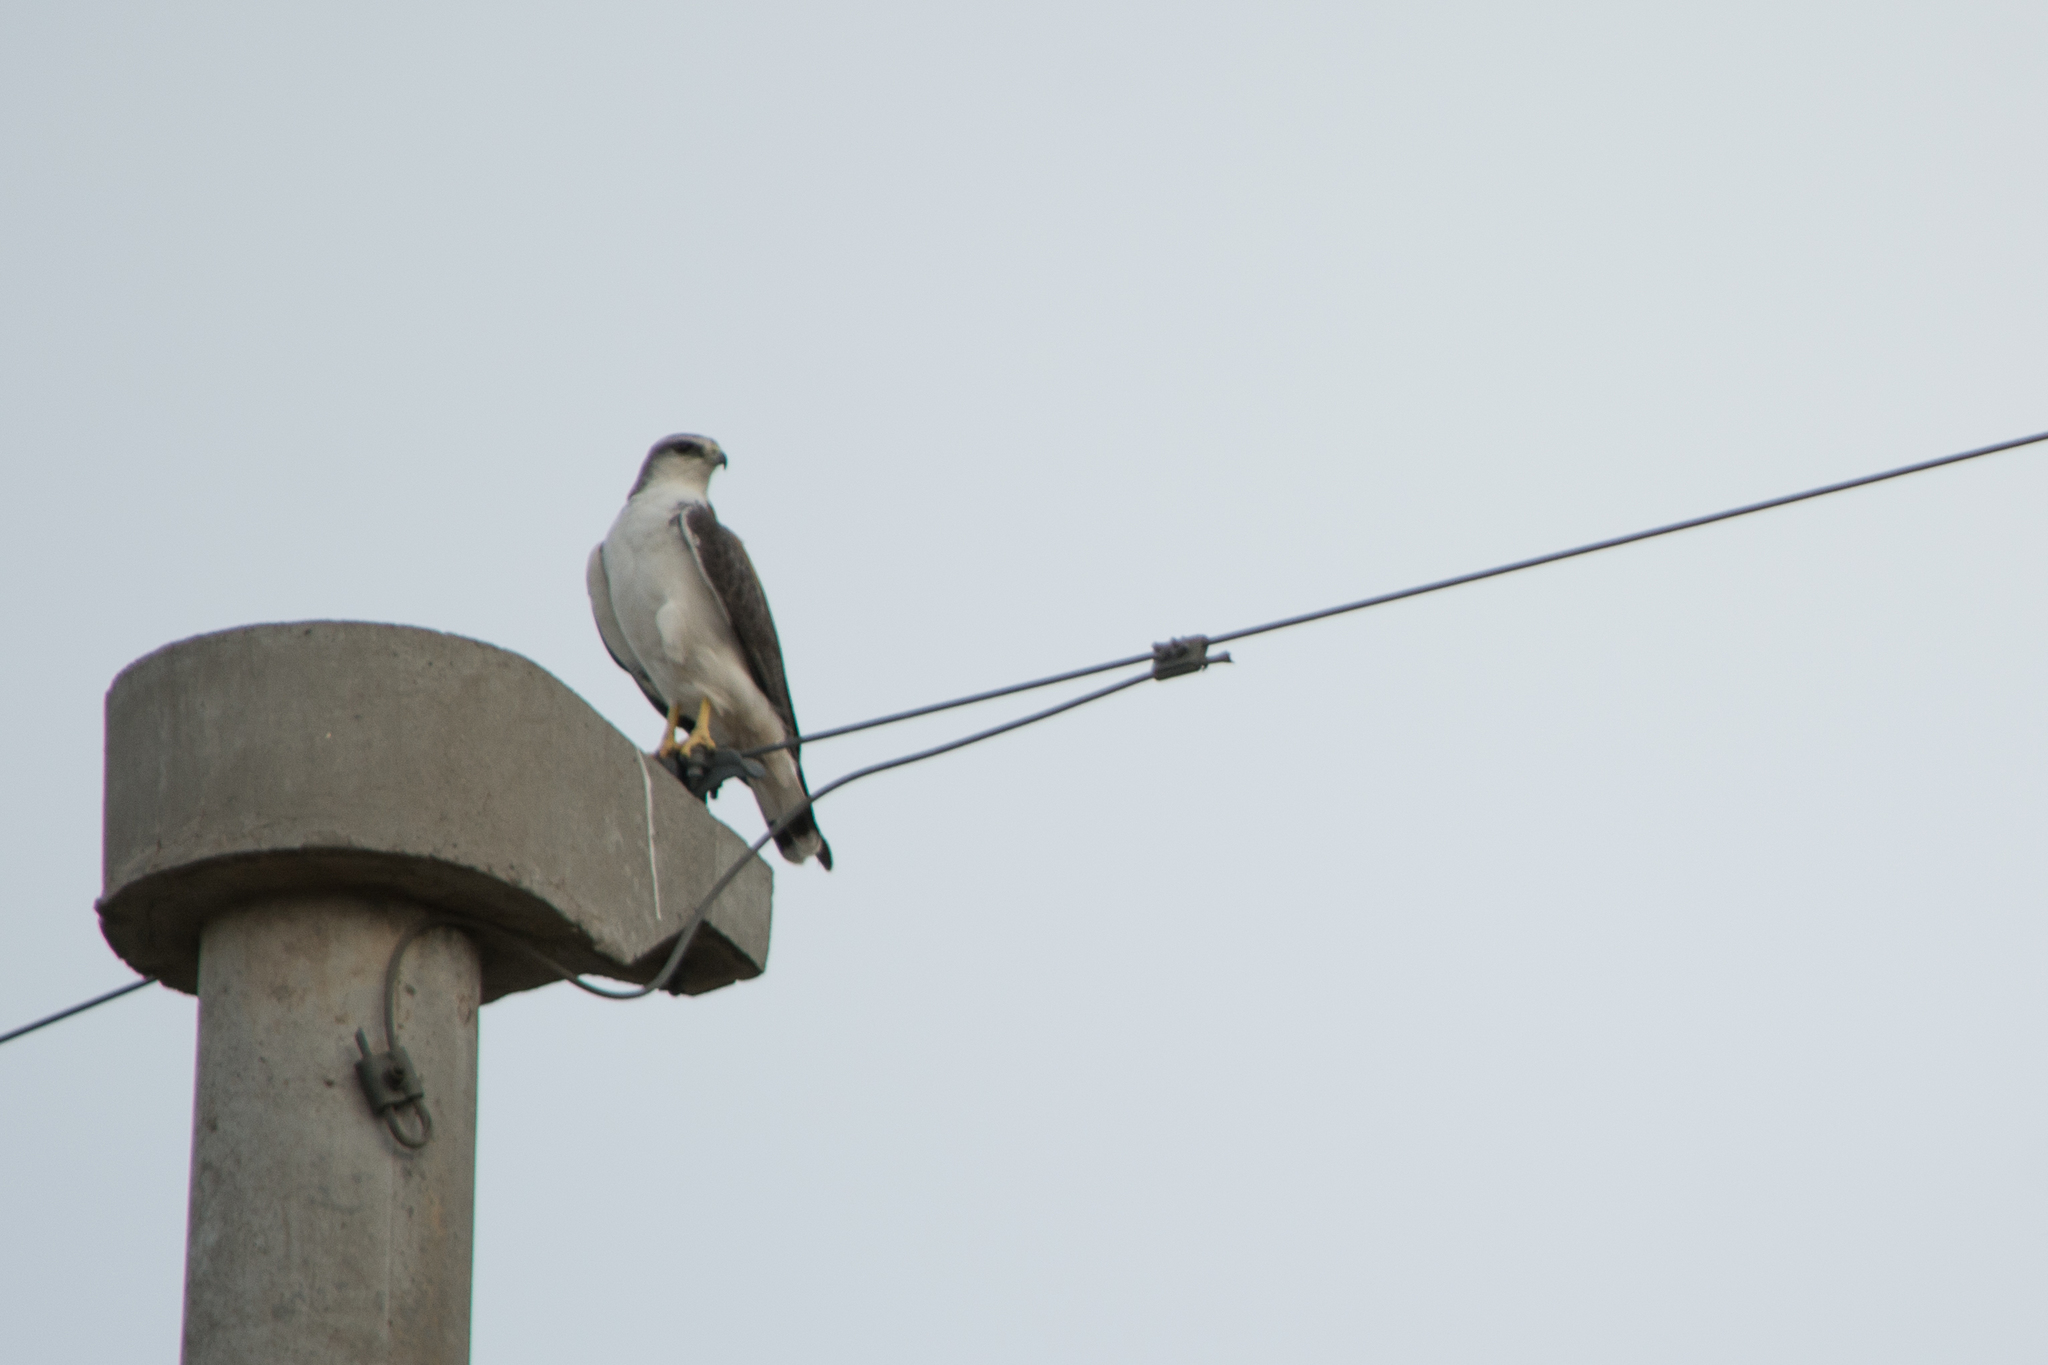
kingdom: Animalia
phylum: Chordata
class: Aves
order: Accipitriformes
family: Accipitridae
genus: Buteo
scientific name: Buteo polyosoma
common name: Variable hawk
